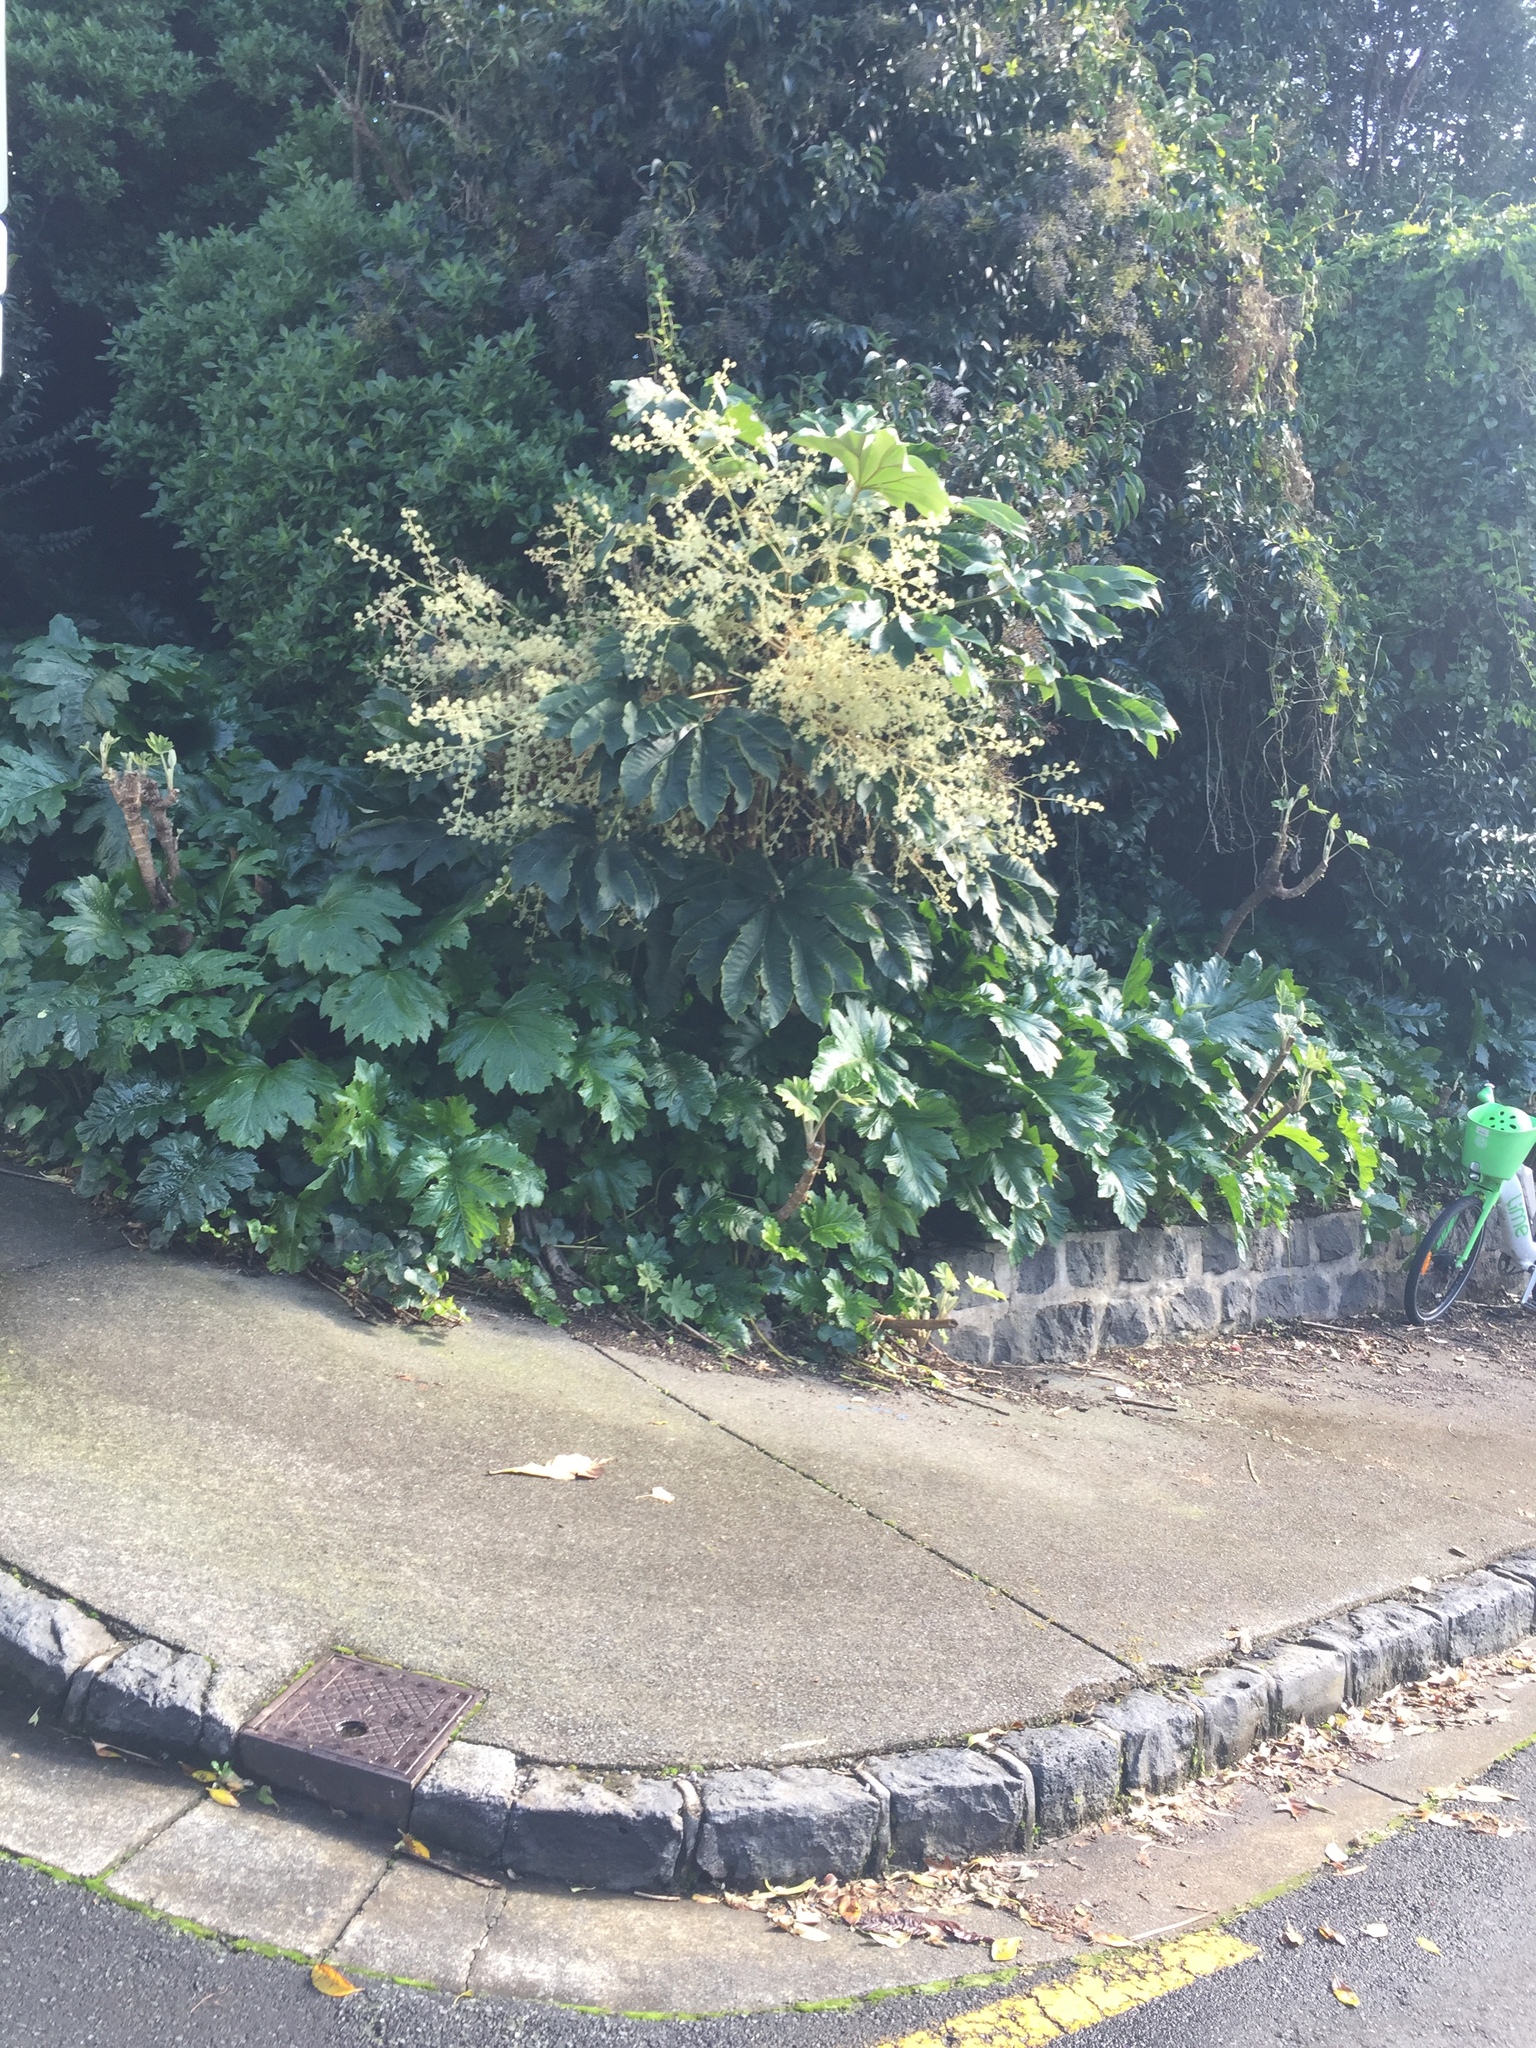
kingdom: Plantae
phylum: Tracheophyta
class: Magnoliopsida
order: Apiales
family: Araliaceae
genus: Tetrapanax
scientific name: Tetrapanax papyrifer
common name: Rice-paper plant
